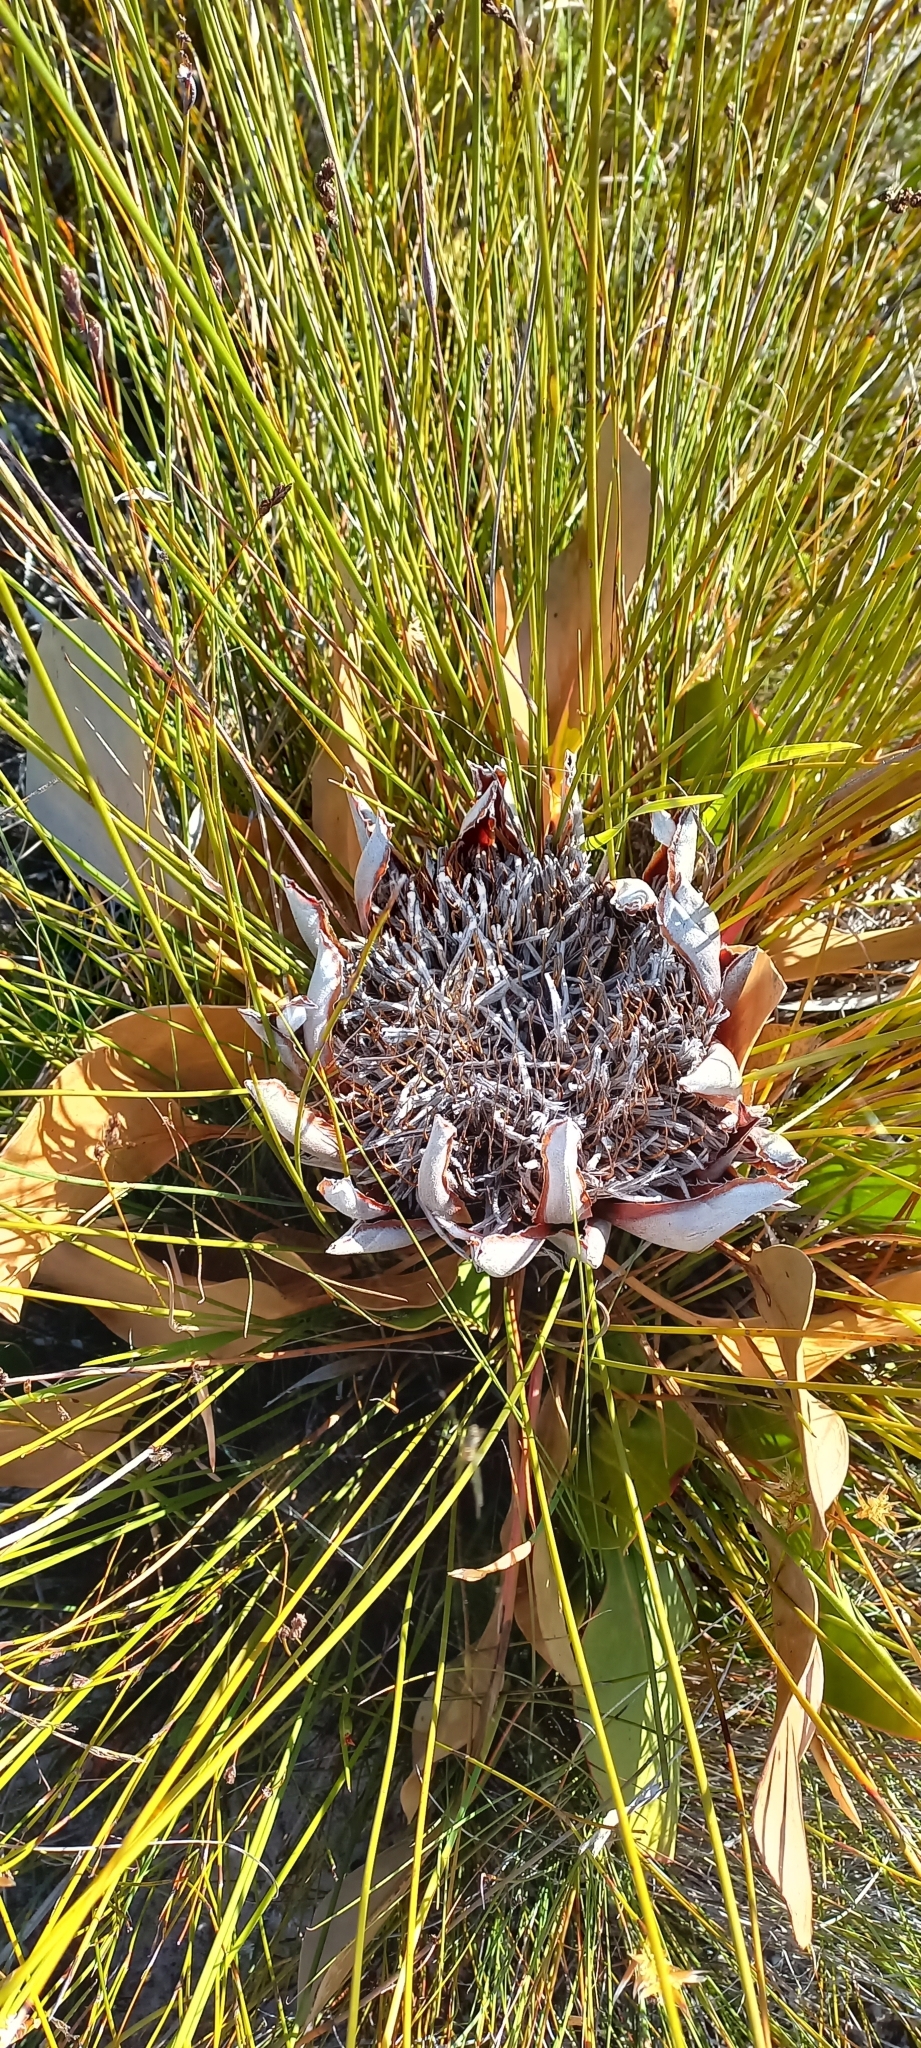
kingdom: Plantae
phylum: Tracheophyta
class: Magnoliopsida
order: Proteales
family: Proteaceae
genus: Protea
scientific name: Protea magnifica
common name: Bearded sugarbush
